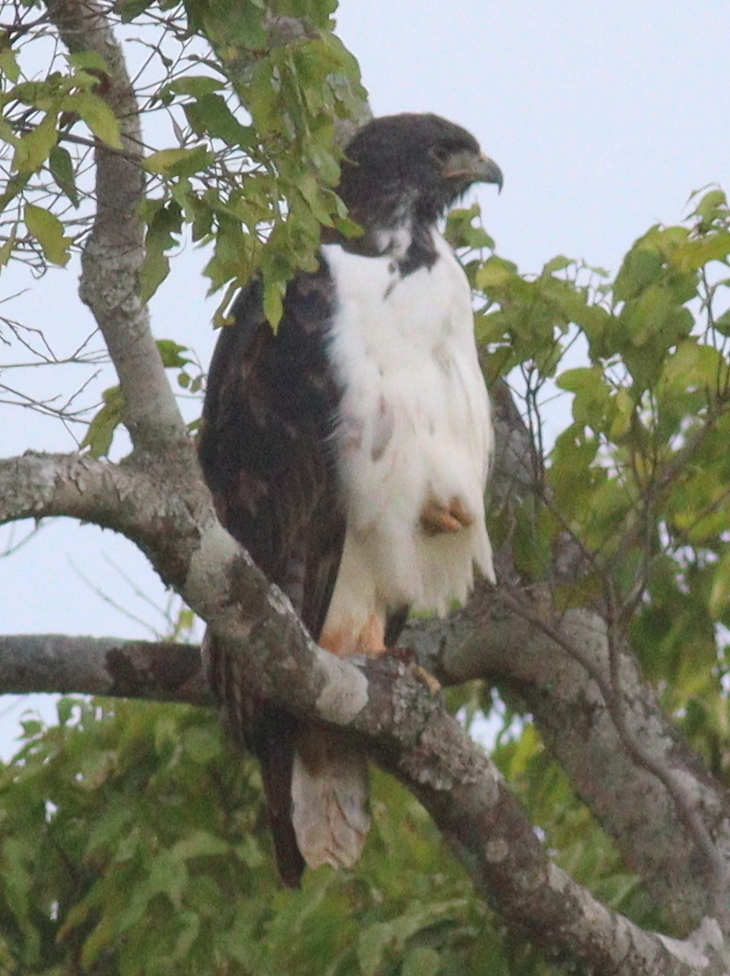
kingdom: Animalia
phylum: Chordata
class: Aves
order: Accipitriformes
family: Accipitridae
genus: Buteo
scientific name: Buteo augur
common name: Augur buzzard
